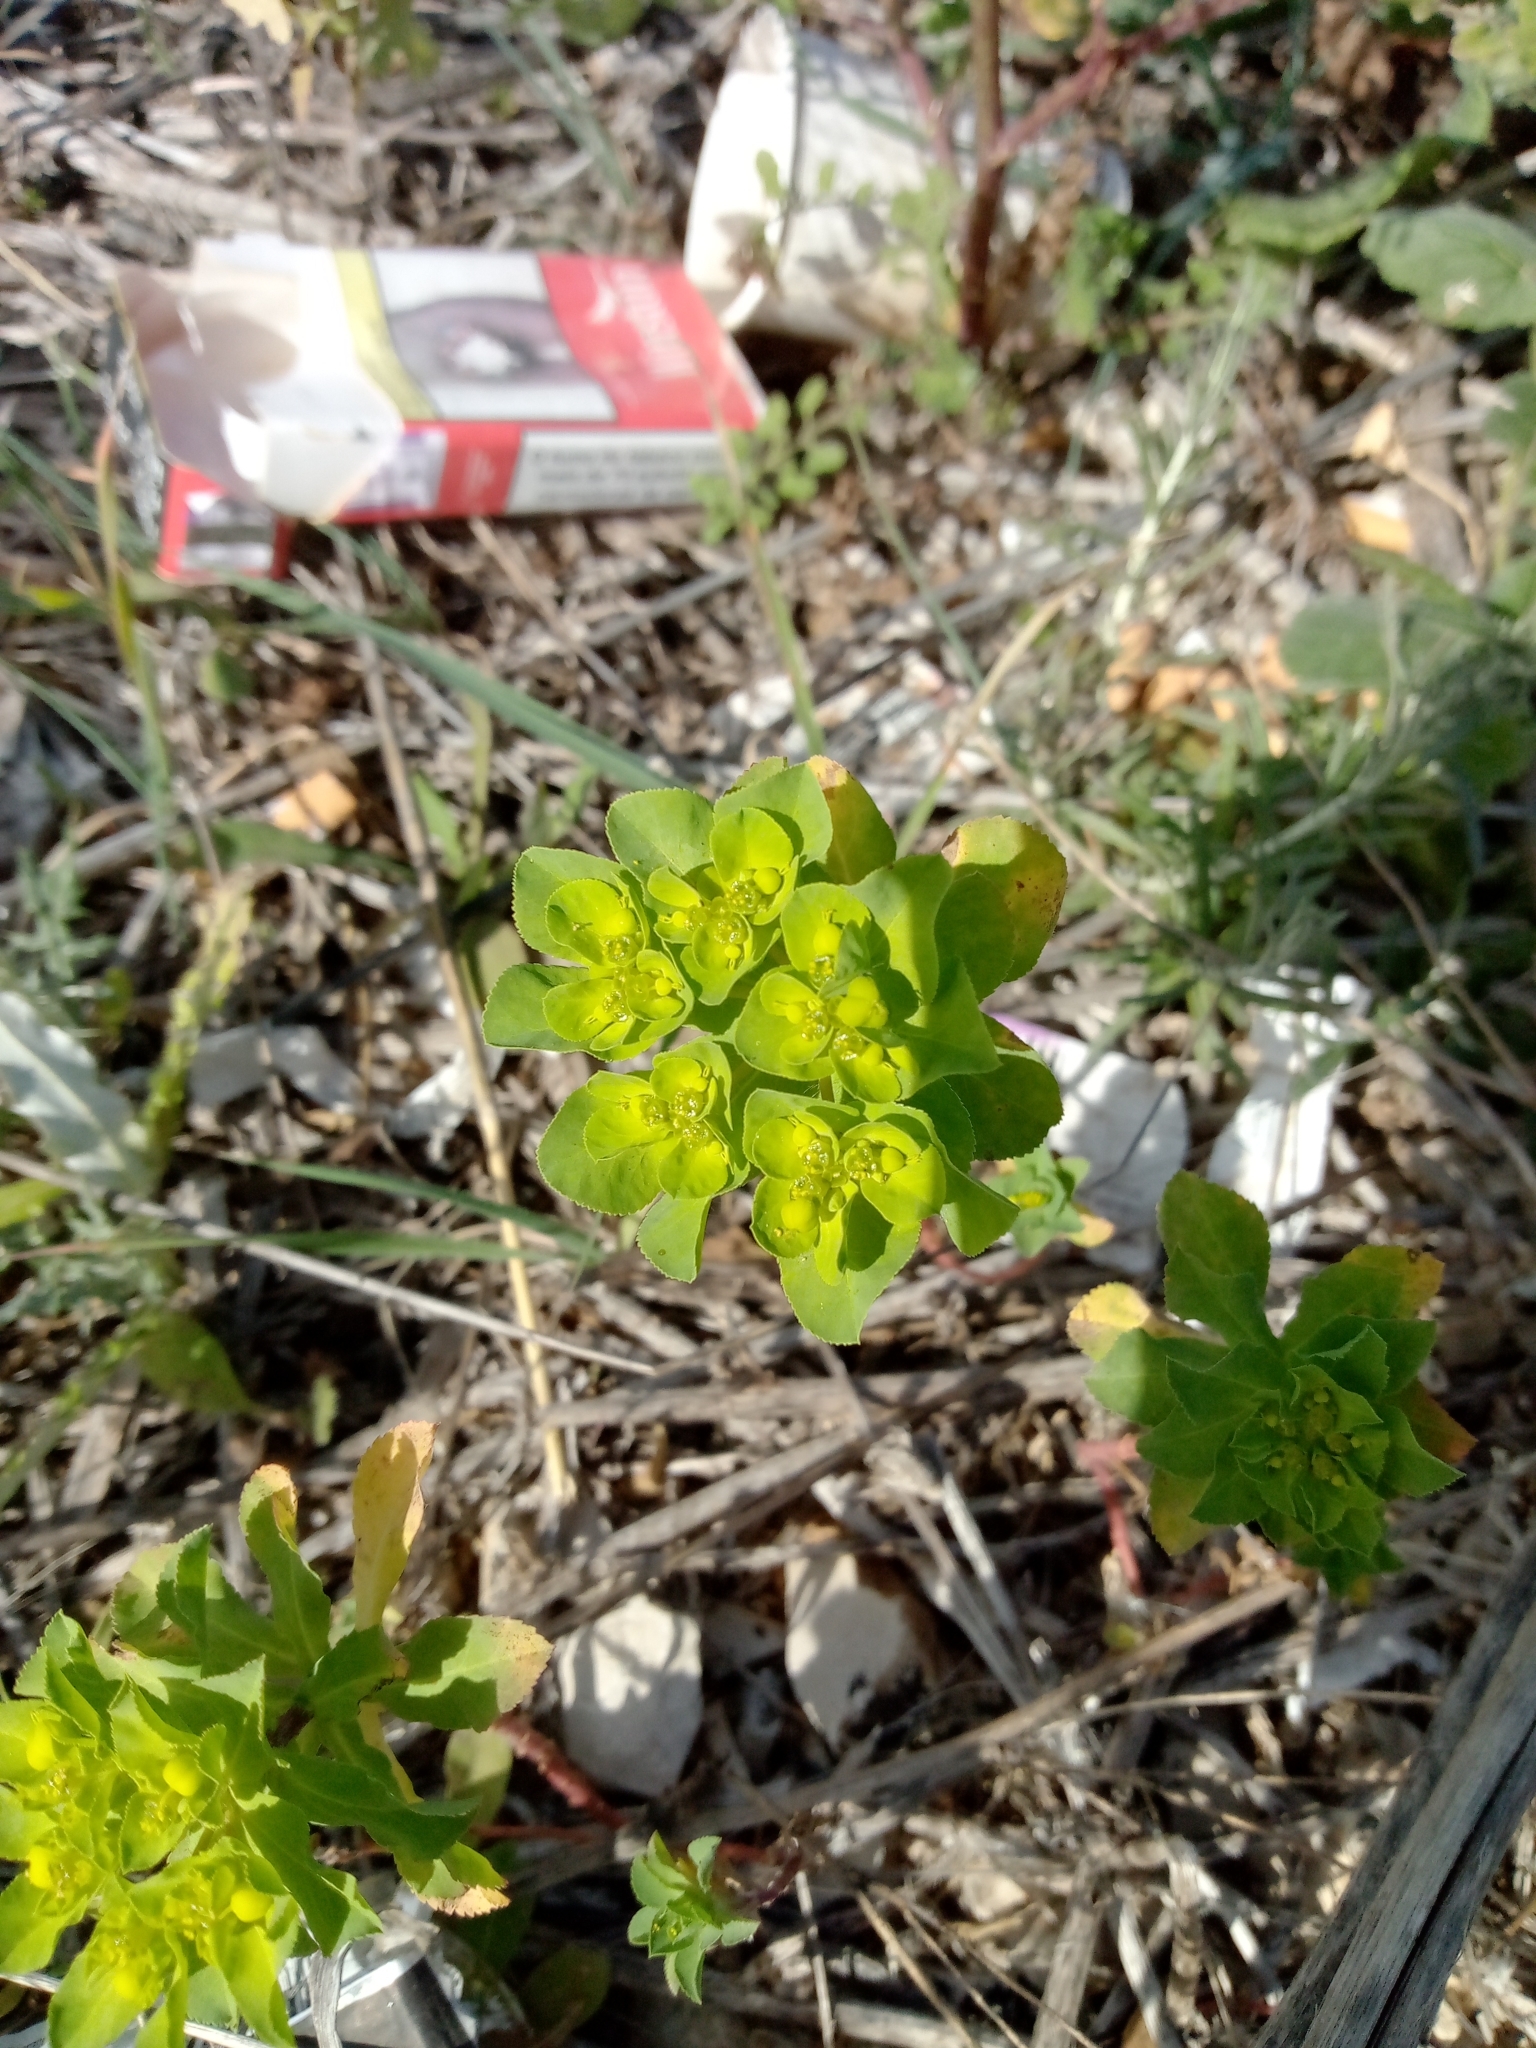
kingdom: Plantae
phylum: Tracheophyta
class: Magnoliopsida
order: Malpighiales
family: Euphorbiaceae
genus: Euphorbia
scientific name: Euphorbia helioscopia
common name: Sun spurge
